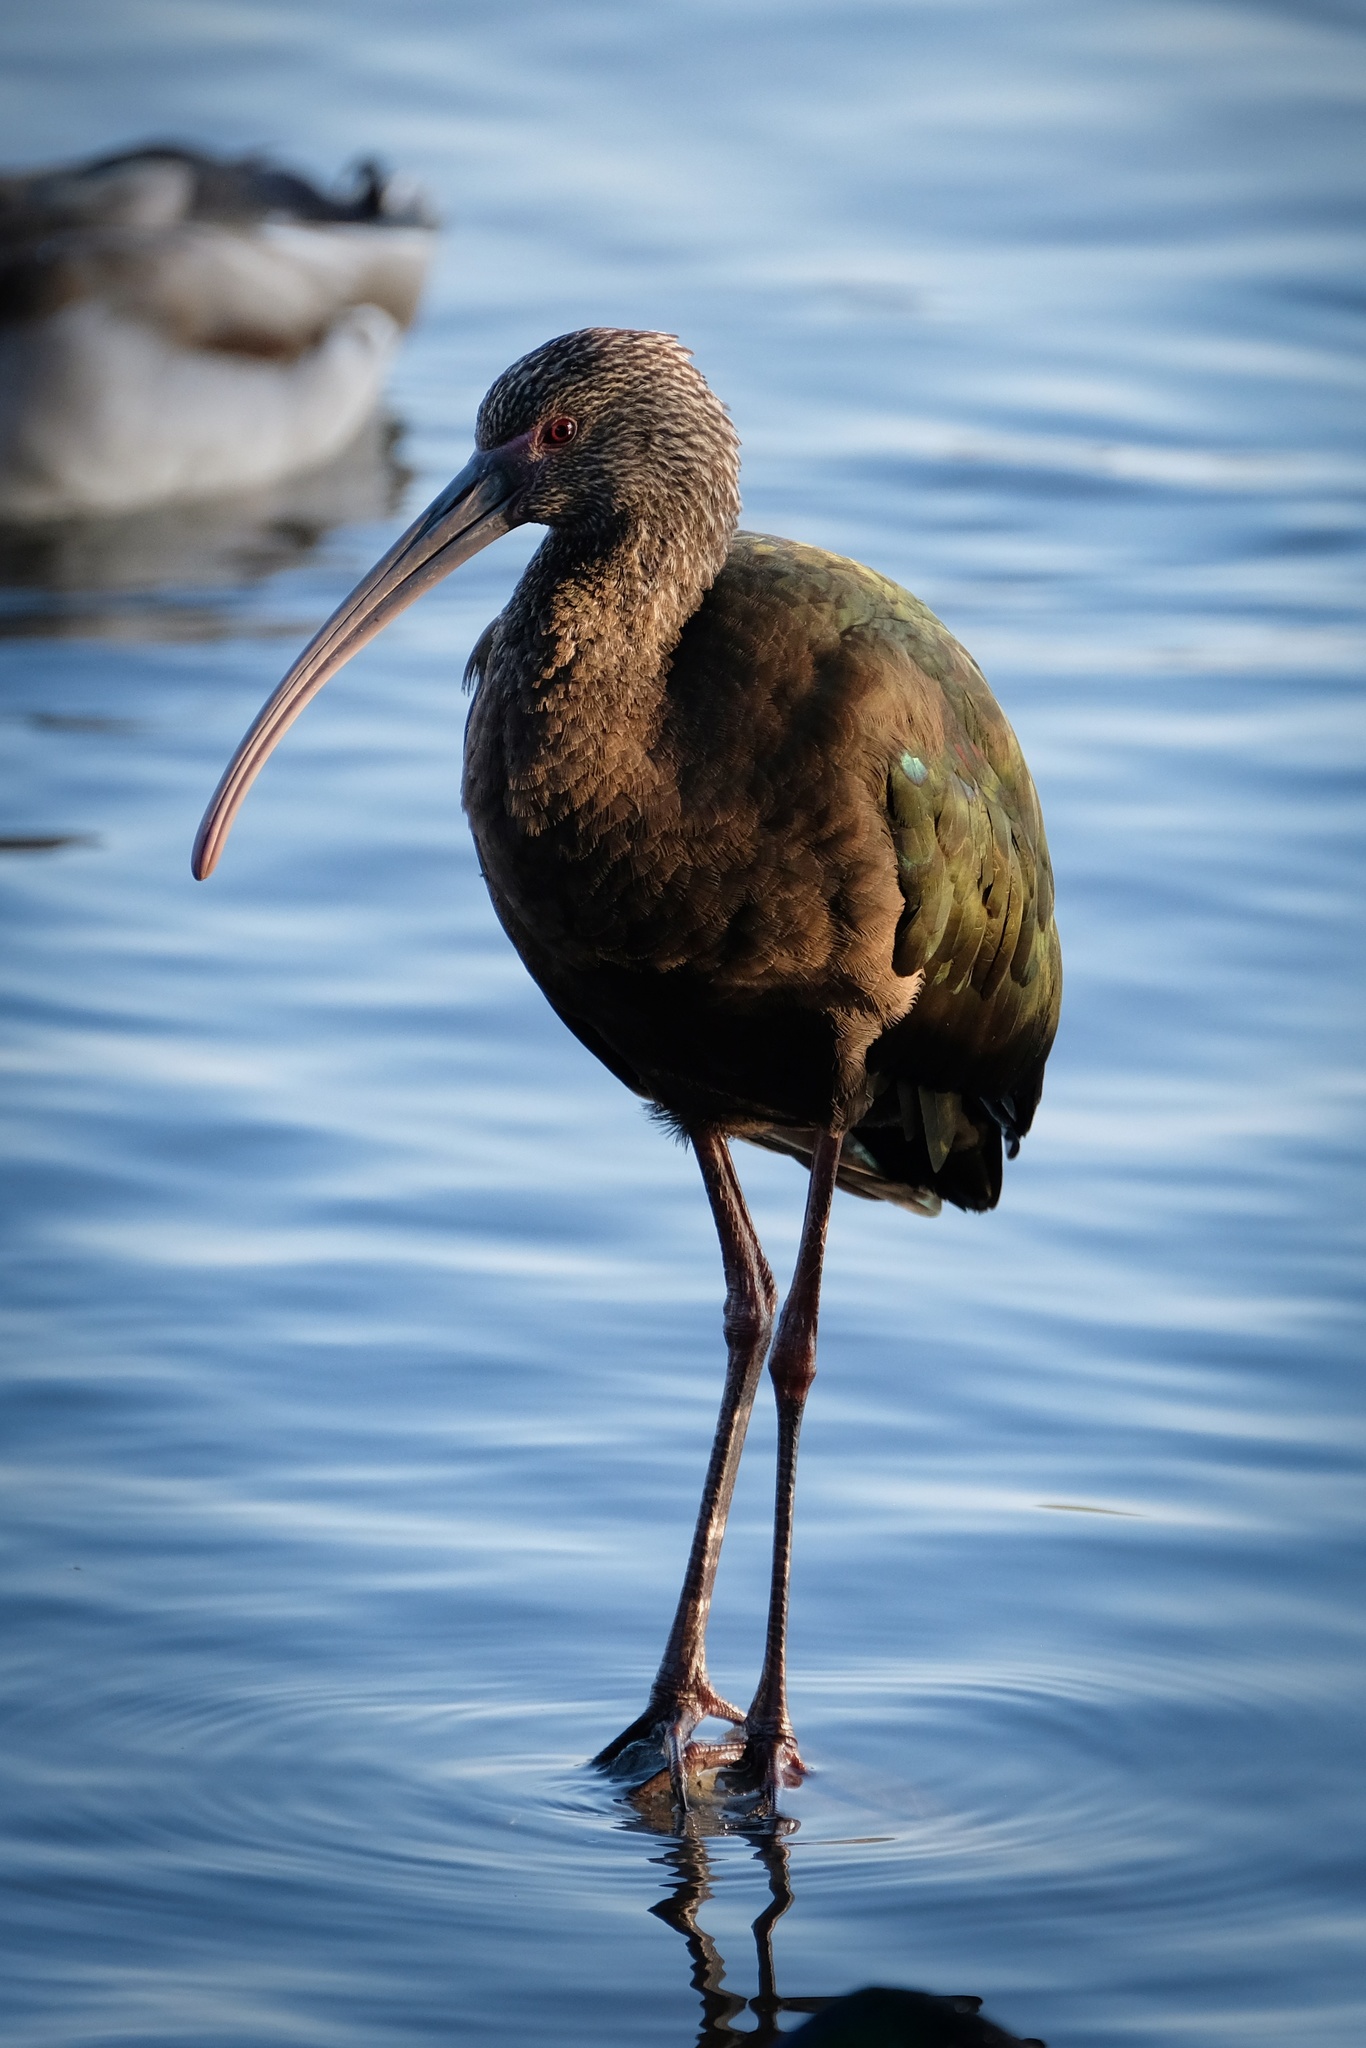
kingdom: Animalia
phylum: Chordata
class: Aves
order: Pelecaniformes
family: Threskiornithidae
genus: Plegadis
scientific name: Plegadis chihi
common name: White-faced ibis
